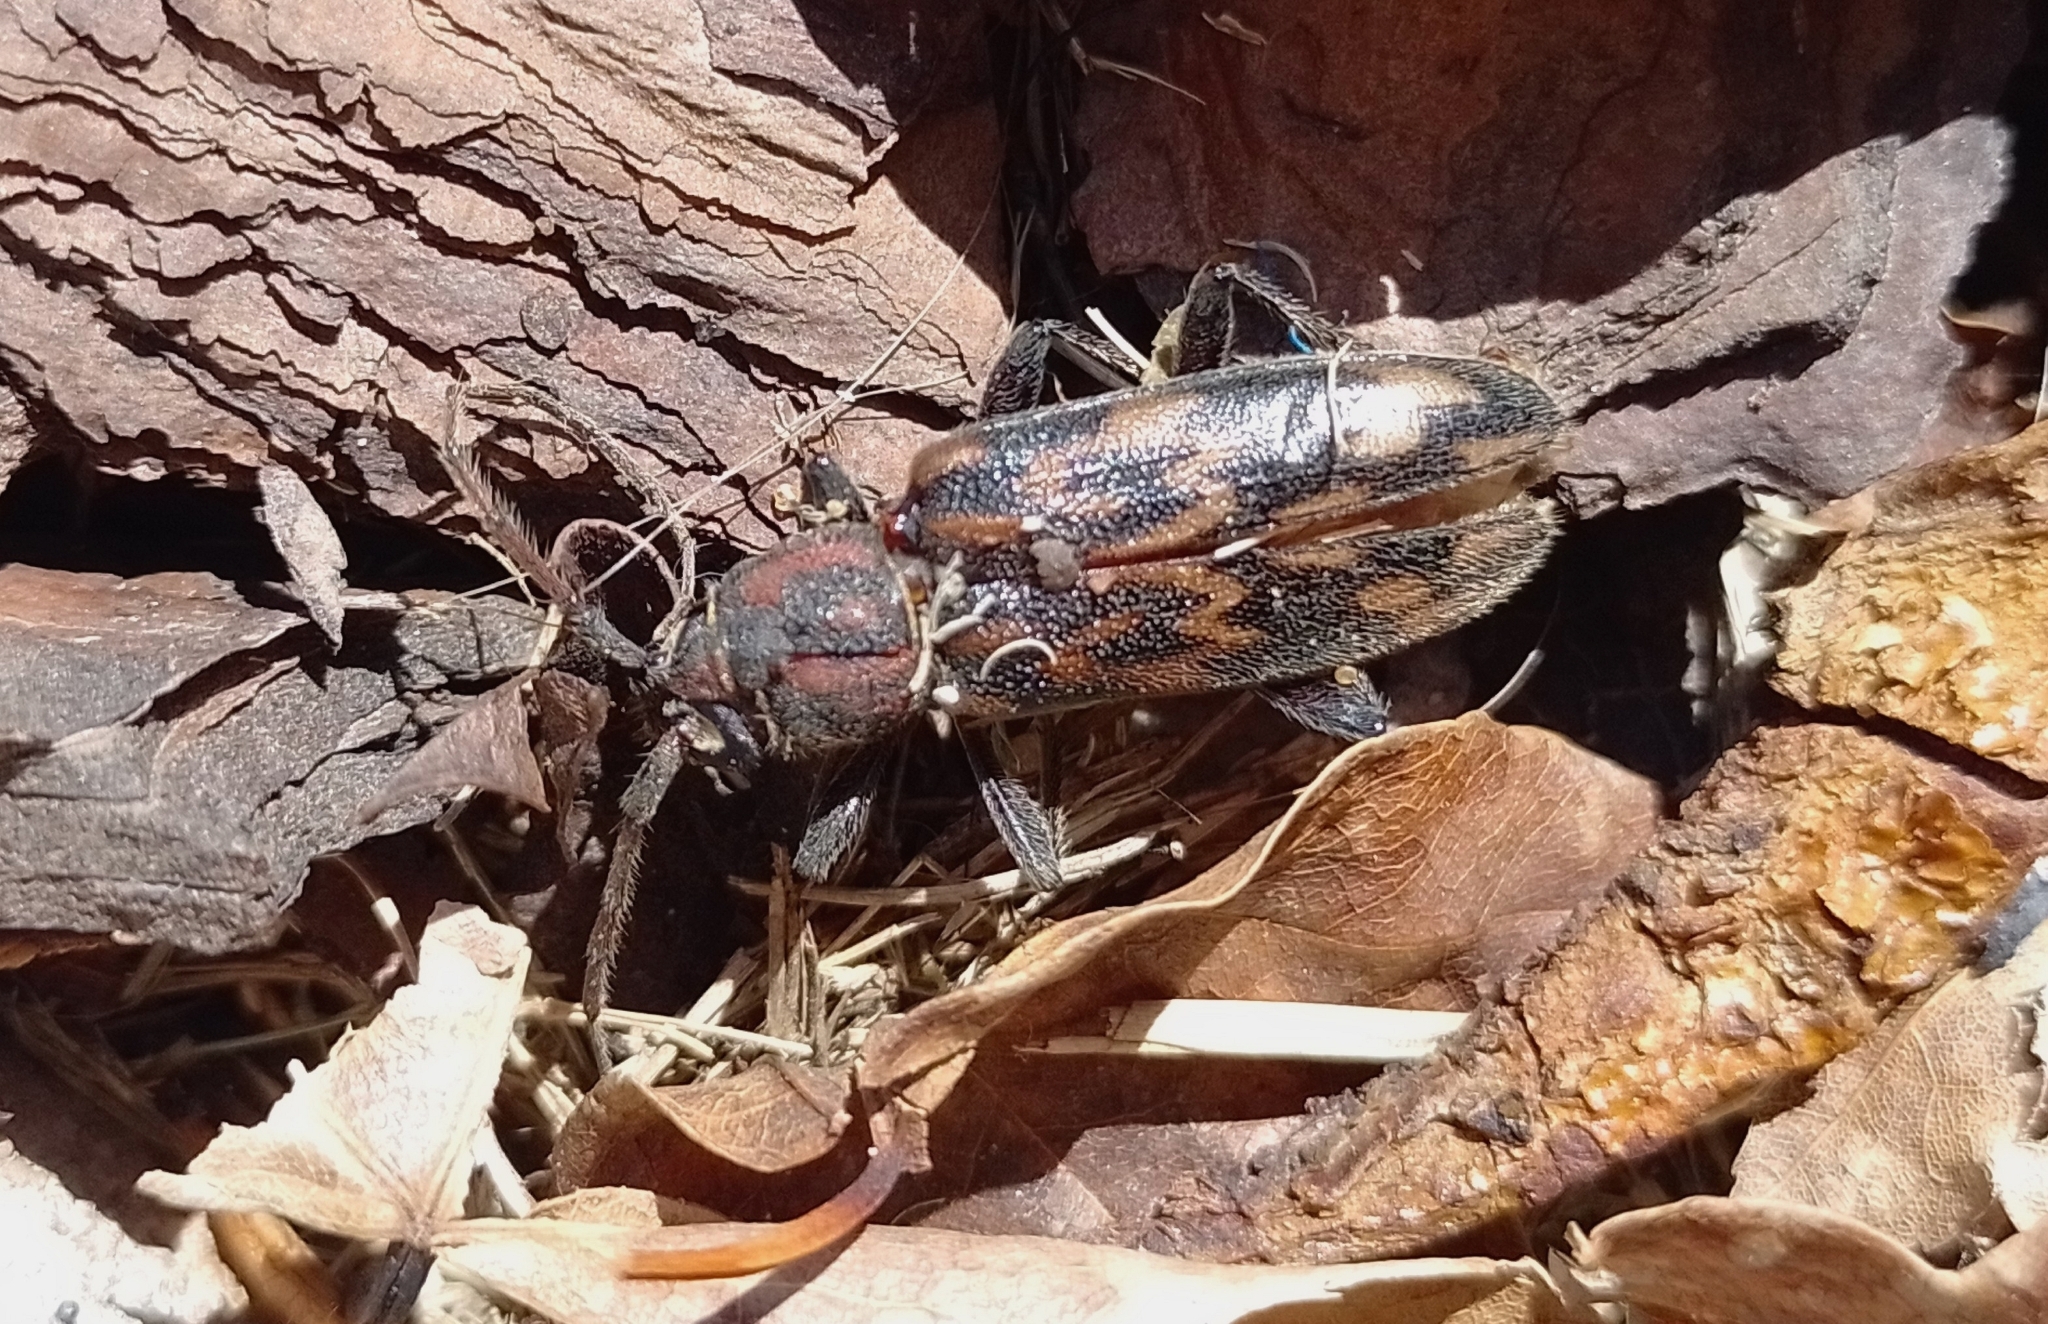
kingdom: Animalia
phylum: Arthropoda
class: Insecta
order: Coleoptera
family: Cerambycidae
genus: Achryson
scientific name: Achryson undulatum
